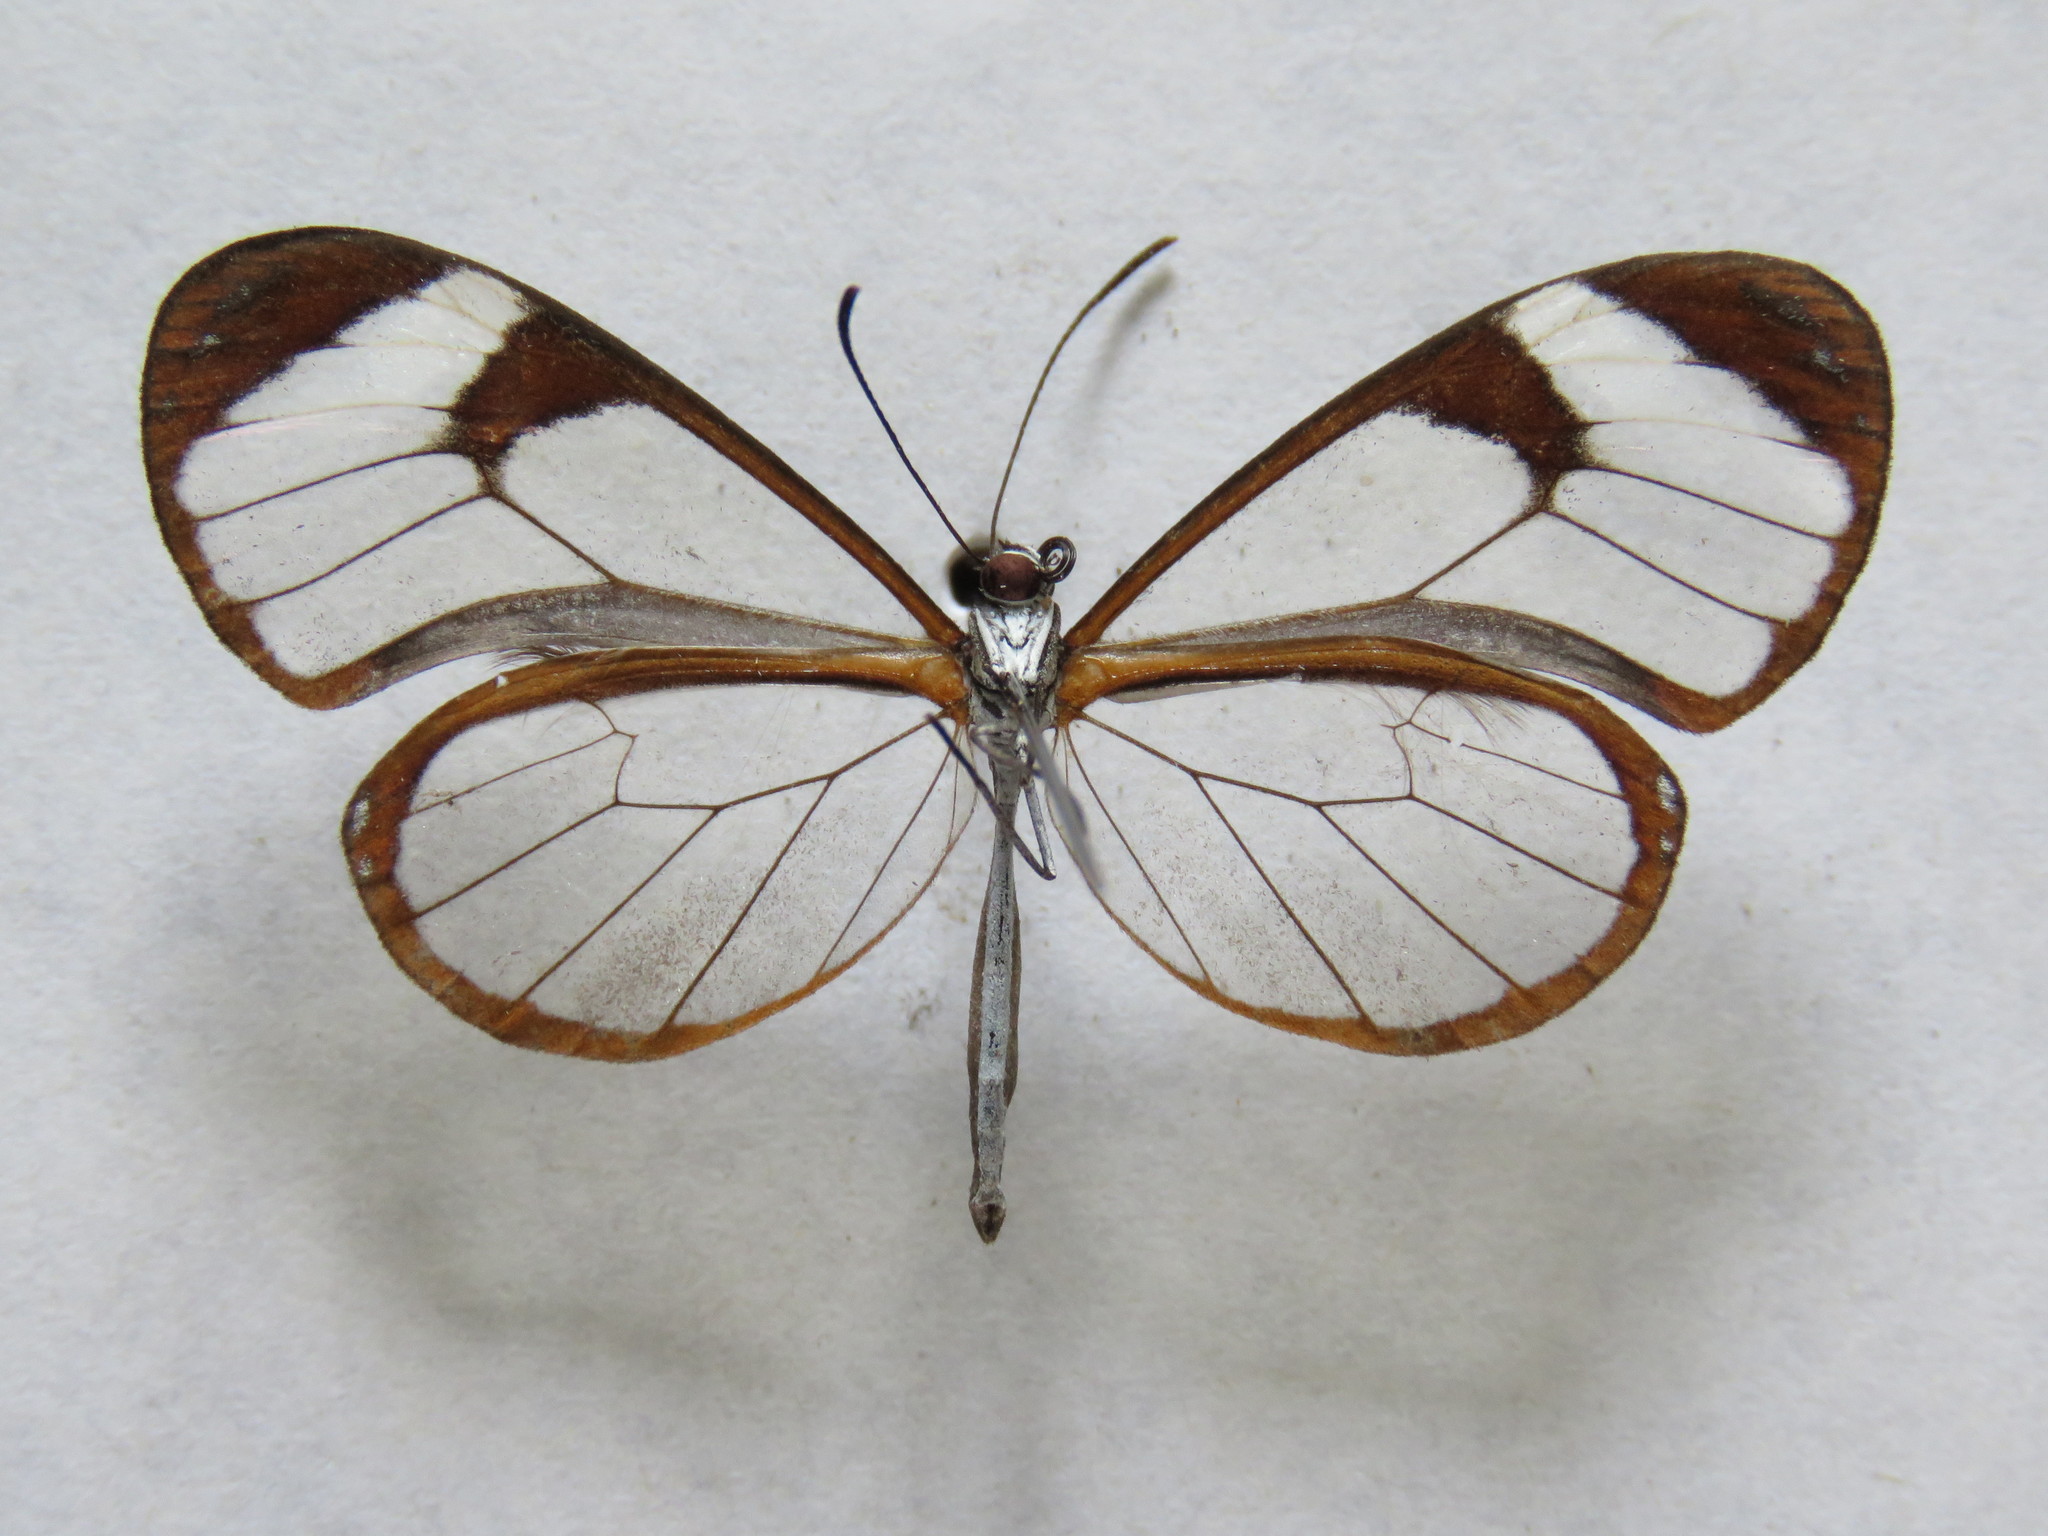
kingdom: Animalia
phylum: Arthropoda
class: Insecta
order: Lepidoptera
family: Nymphalidae
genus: Pteronymia
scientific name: Pteronymia cotytto
